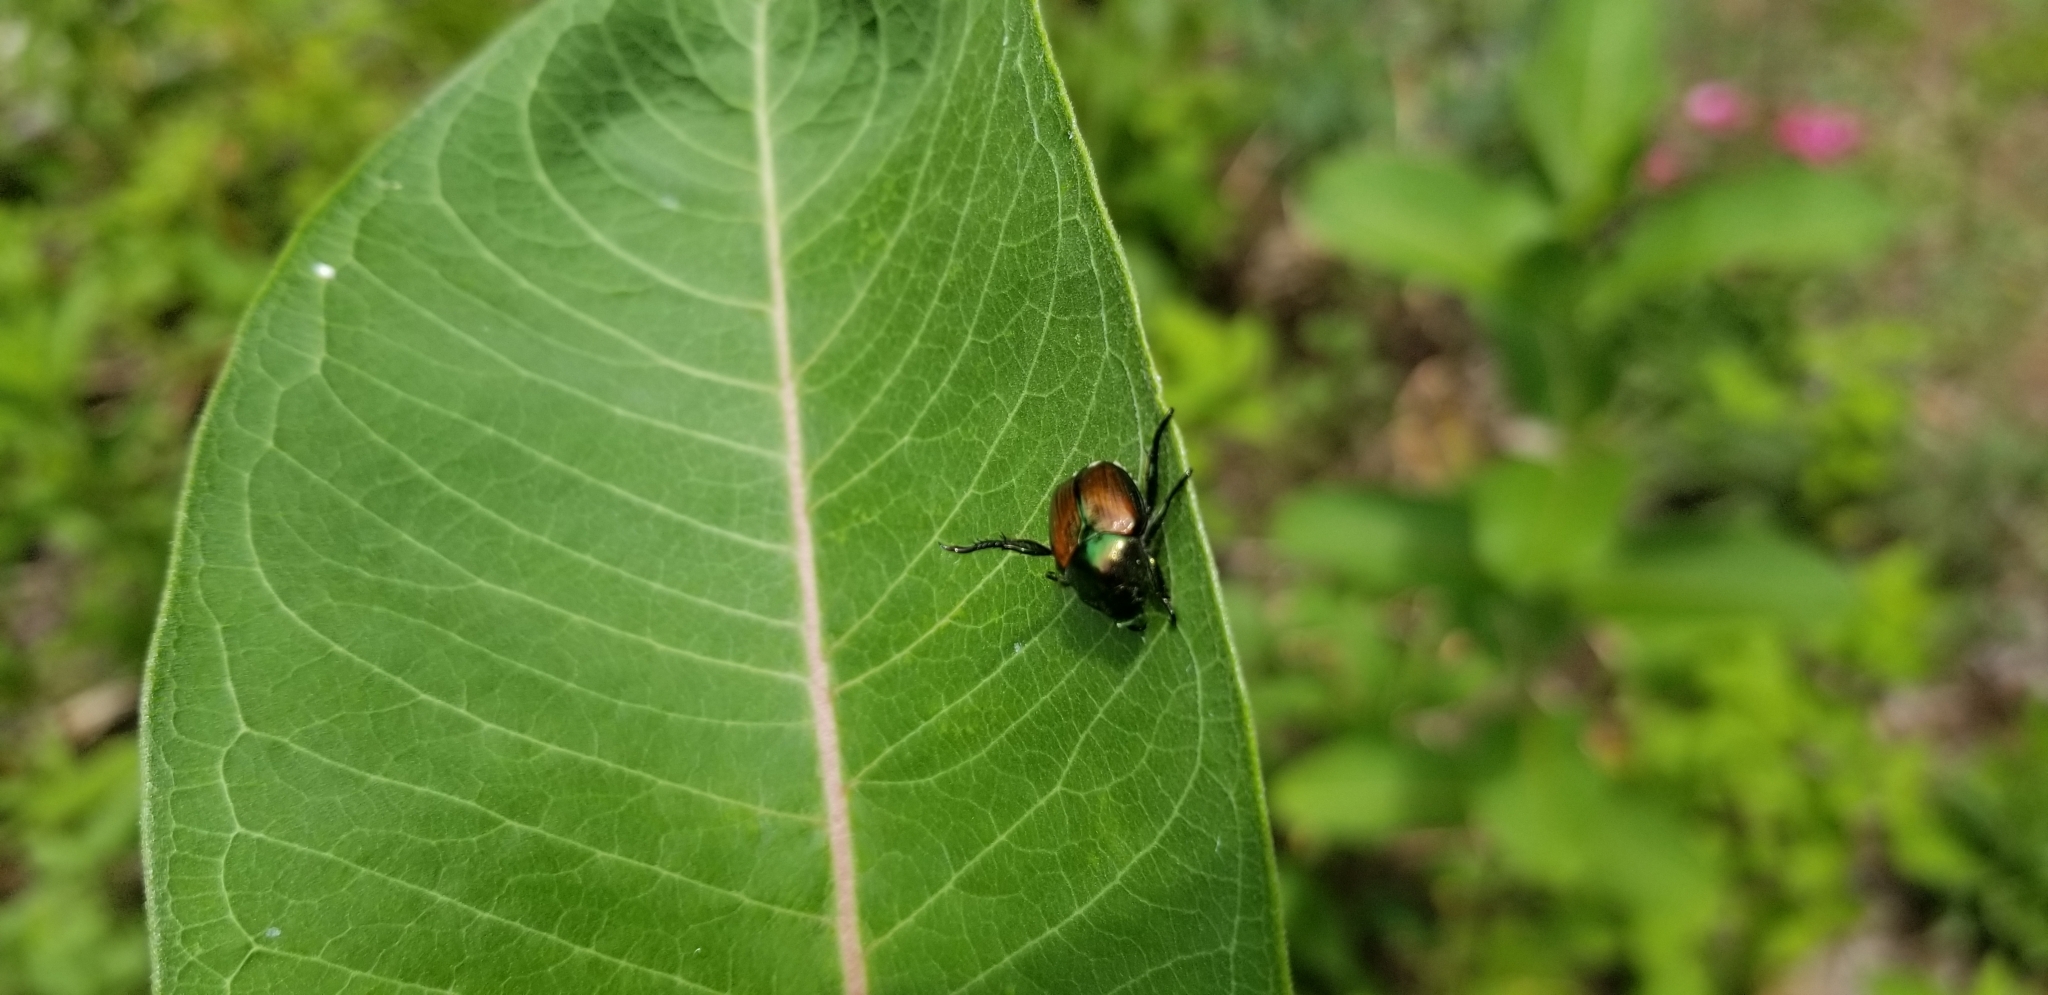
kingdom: Animalia
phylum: Arthropoda
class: Insecta
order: Coleoptera
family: Scarabaeidae
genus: Popillia
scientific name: Popillia japonica
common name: Japanese beetle
